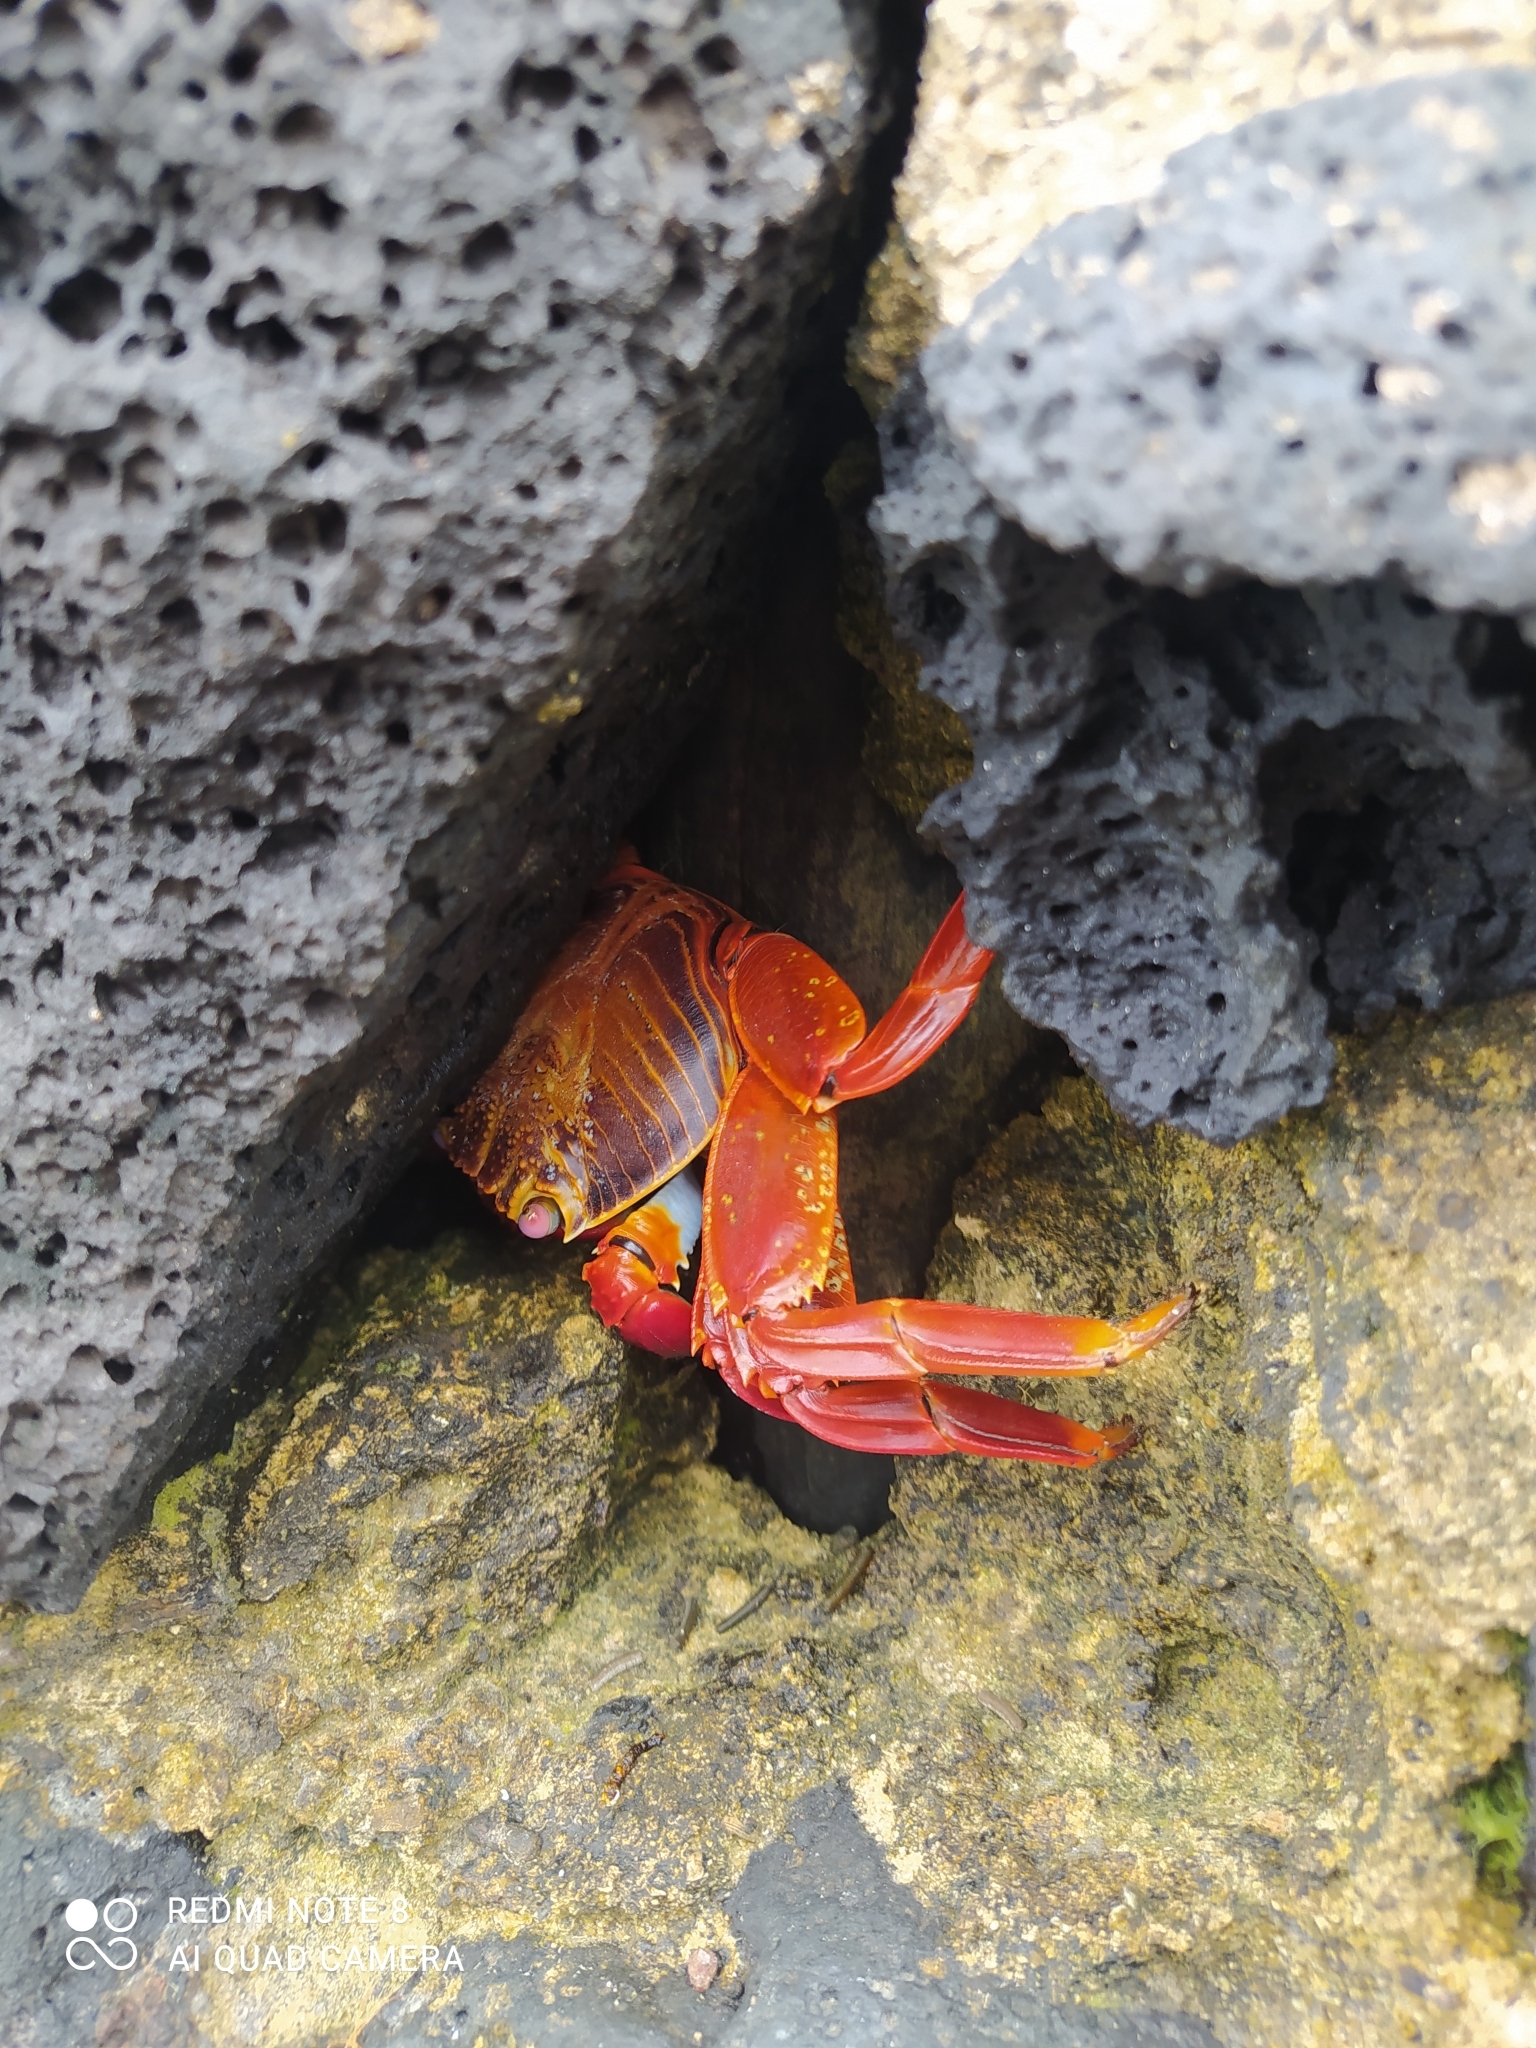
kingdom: Animalia
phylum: Arthropoda
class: Malacostraca
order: Decapoda
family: Grapsidae
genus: Grapsus
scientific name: Grapsus grapsus
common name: Sally lightfoot
